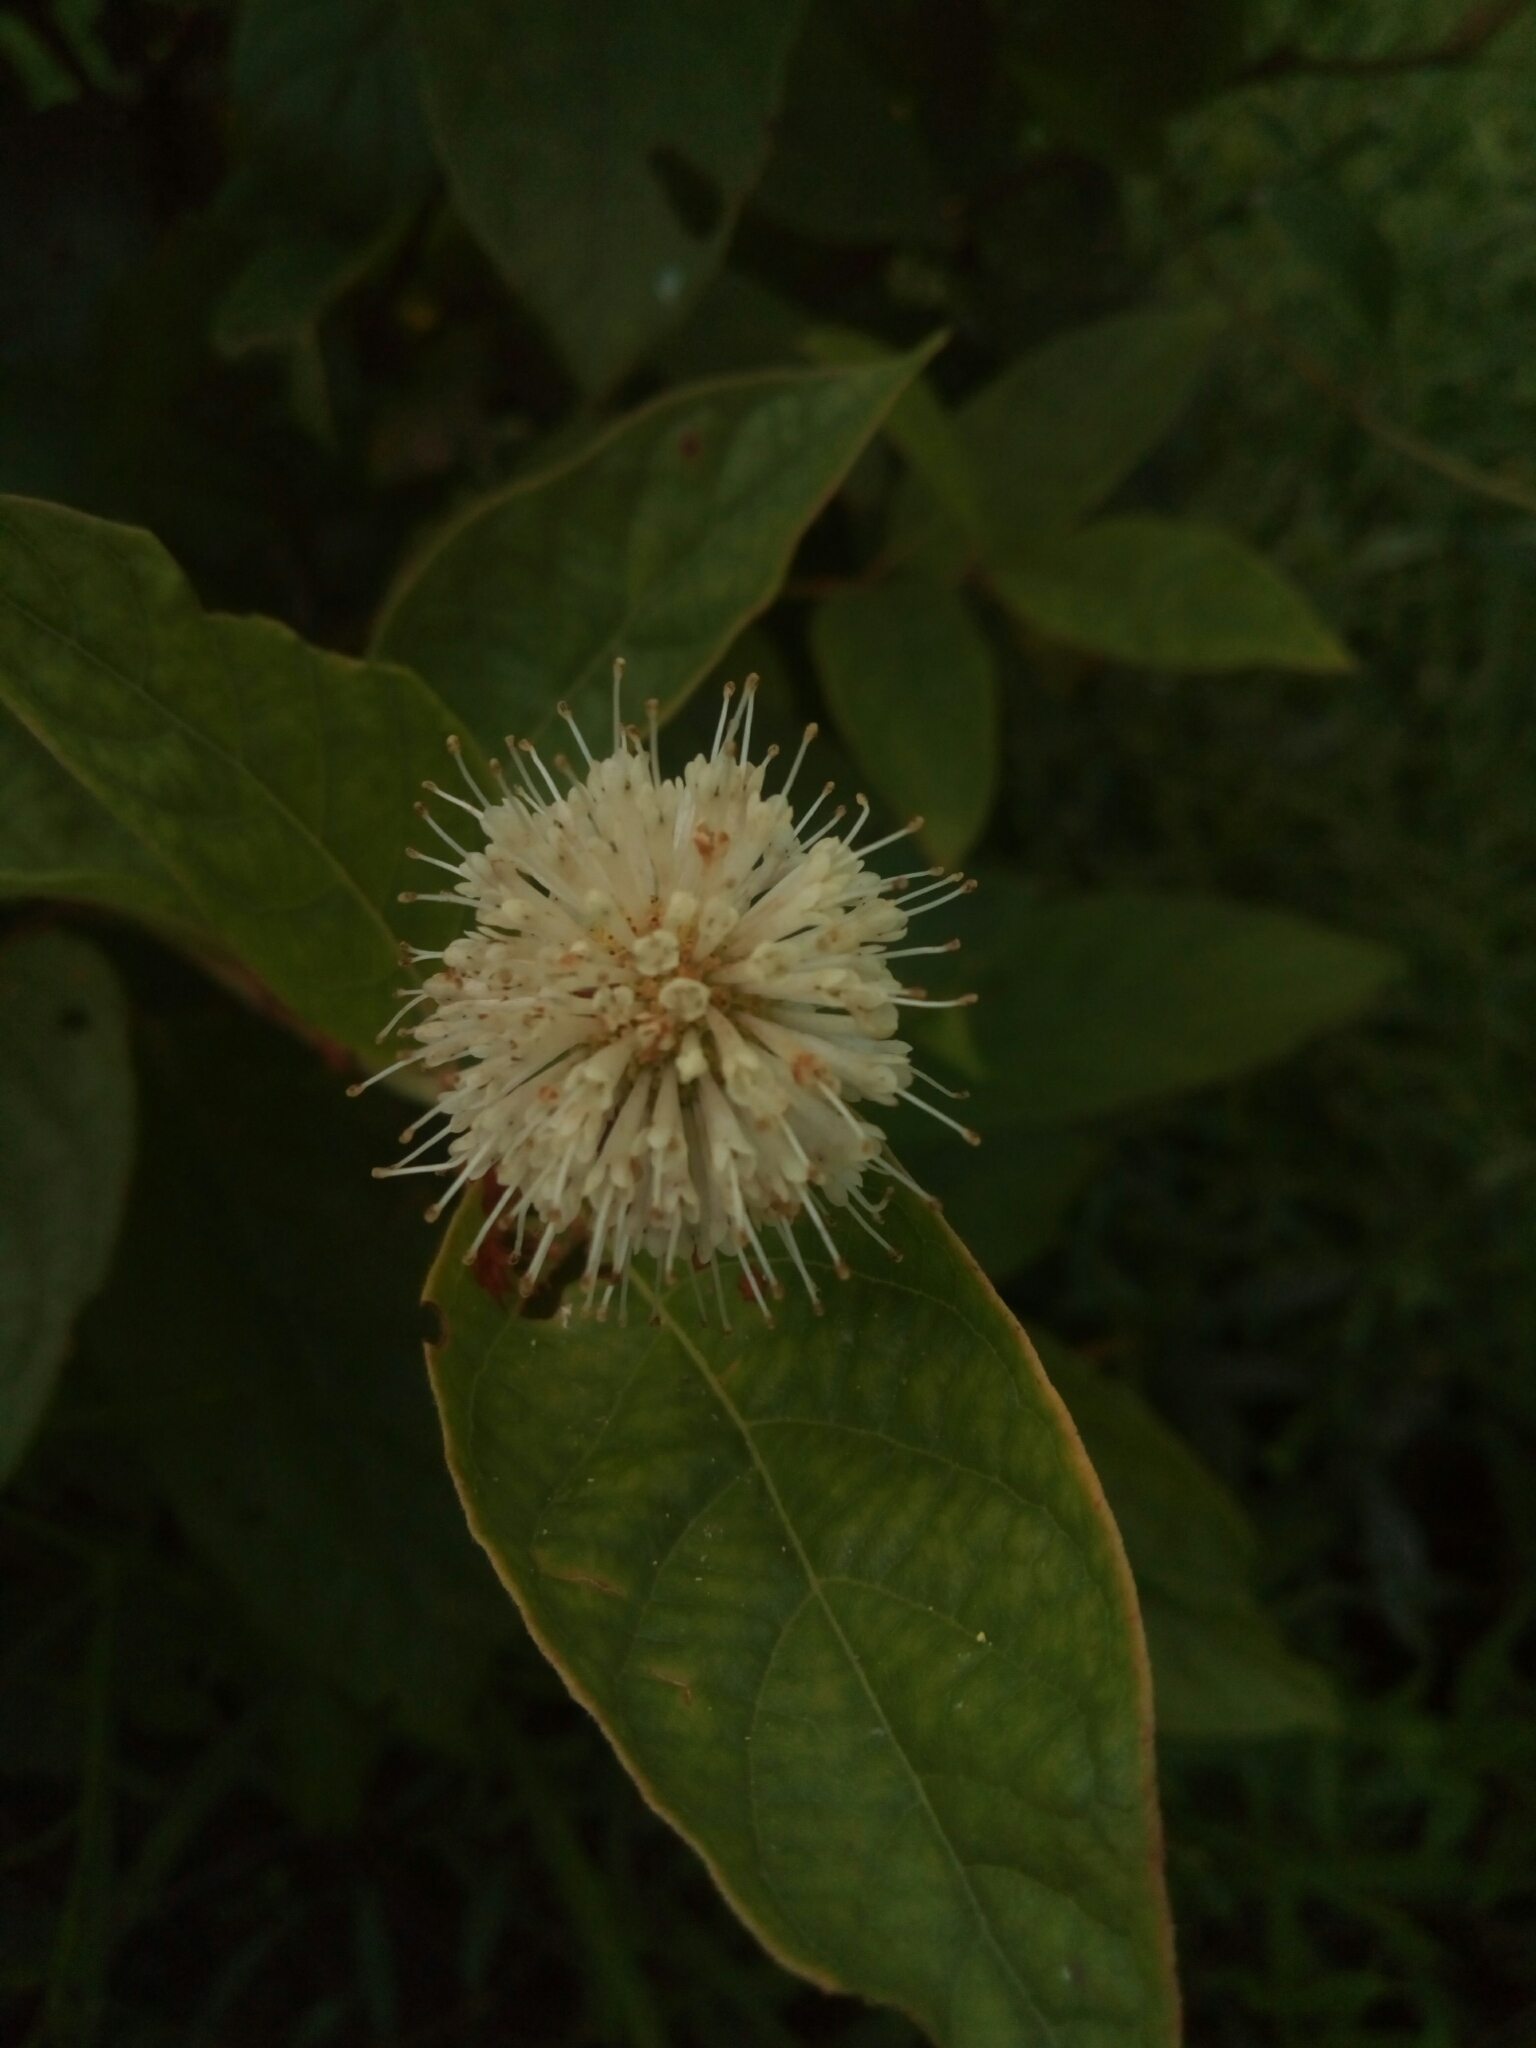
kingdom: Plantae
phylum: Tracheophyta
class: Magnoliopsida
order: Gentianales
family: Rubiaceae
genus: Cephalanthus
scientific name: Cephalanthus occidentalis
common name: Button-willow
